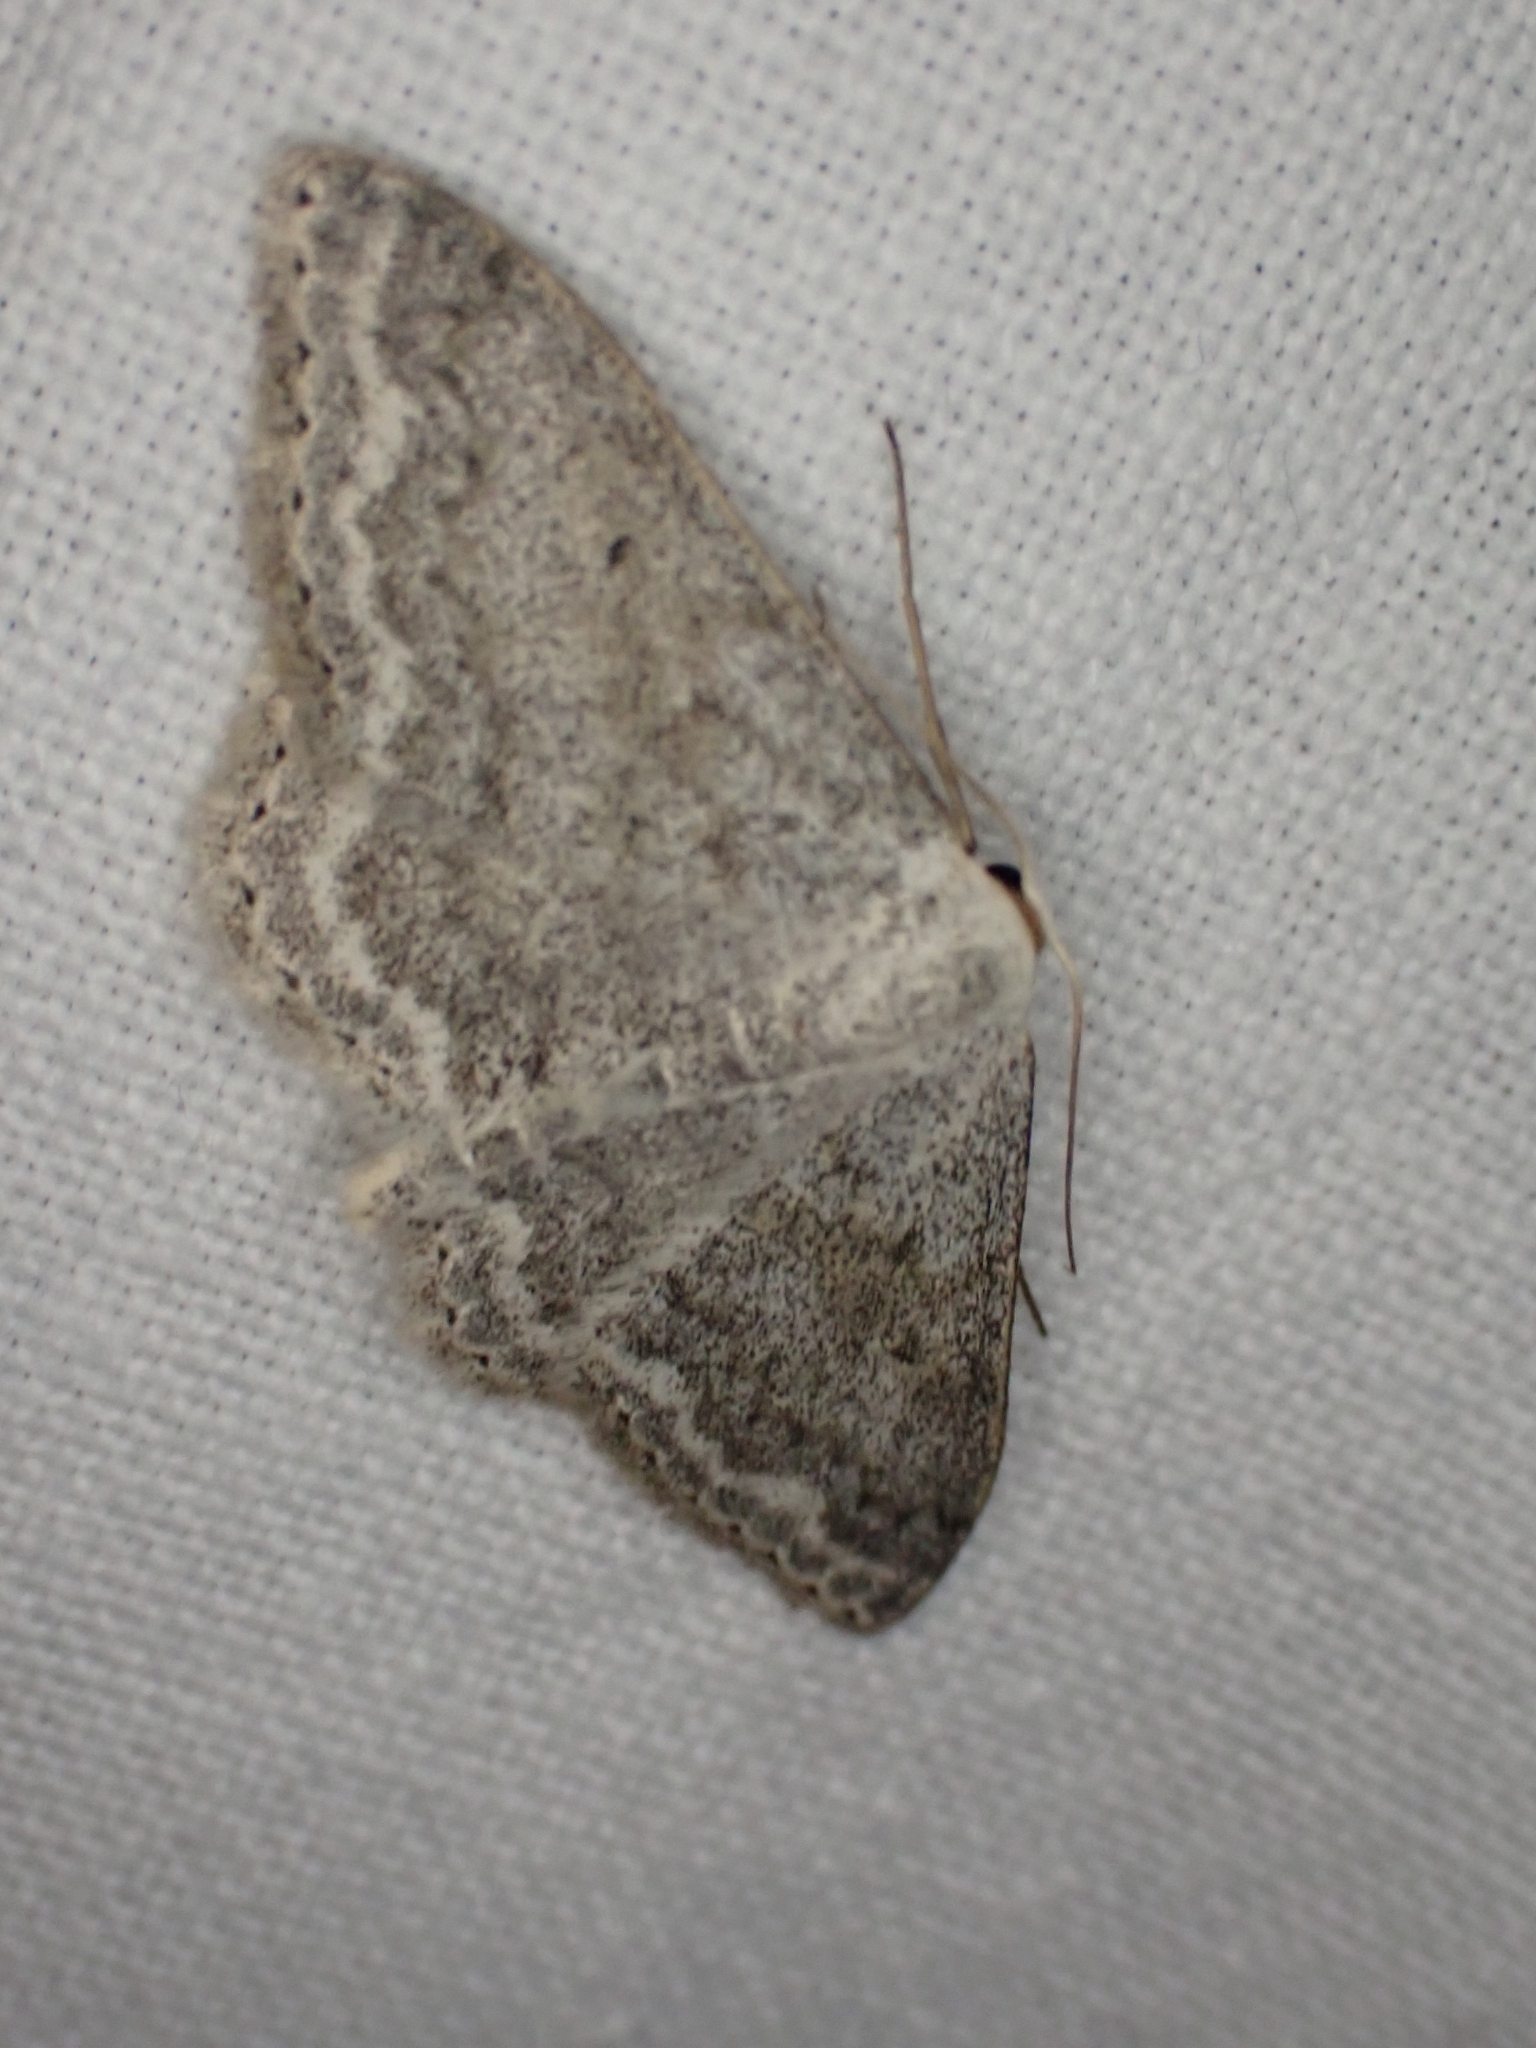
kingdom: Animalia
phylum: Arthropoda
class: Insecta
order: Lepidoptera
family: Geometridae
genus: Scopula
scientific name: Scopula incanata
